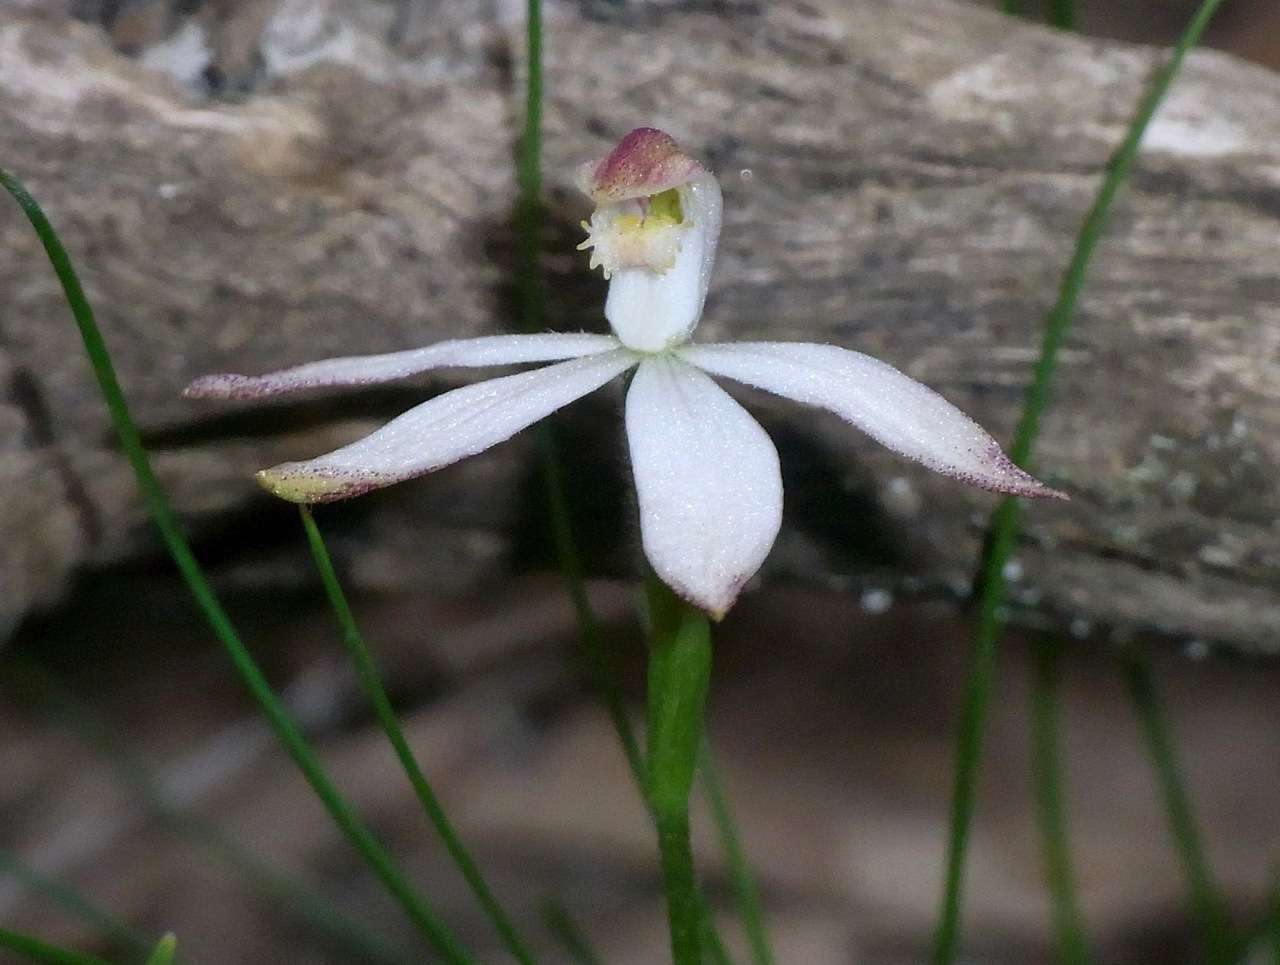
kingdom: Plantae
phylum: Tracheophyta
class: Liliopsida
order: Asparagales
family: Orchidaceae
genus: Caladenia
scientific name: Caladenia dimorpha
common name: Spicy caps
